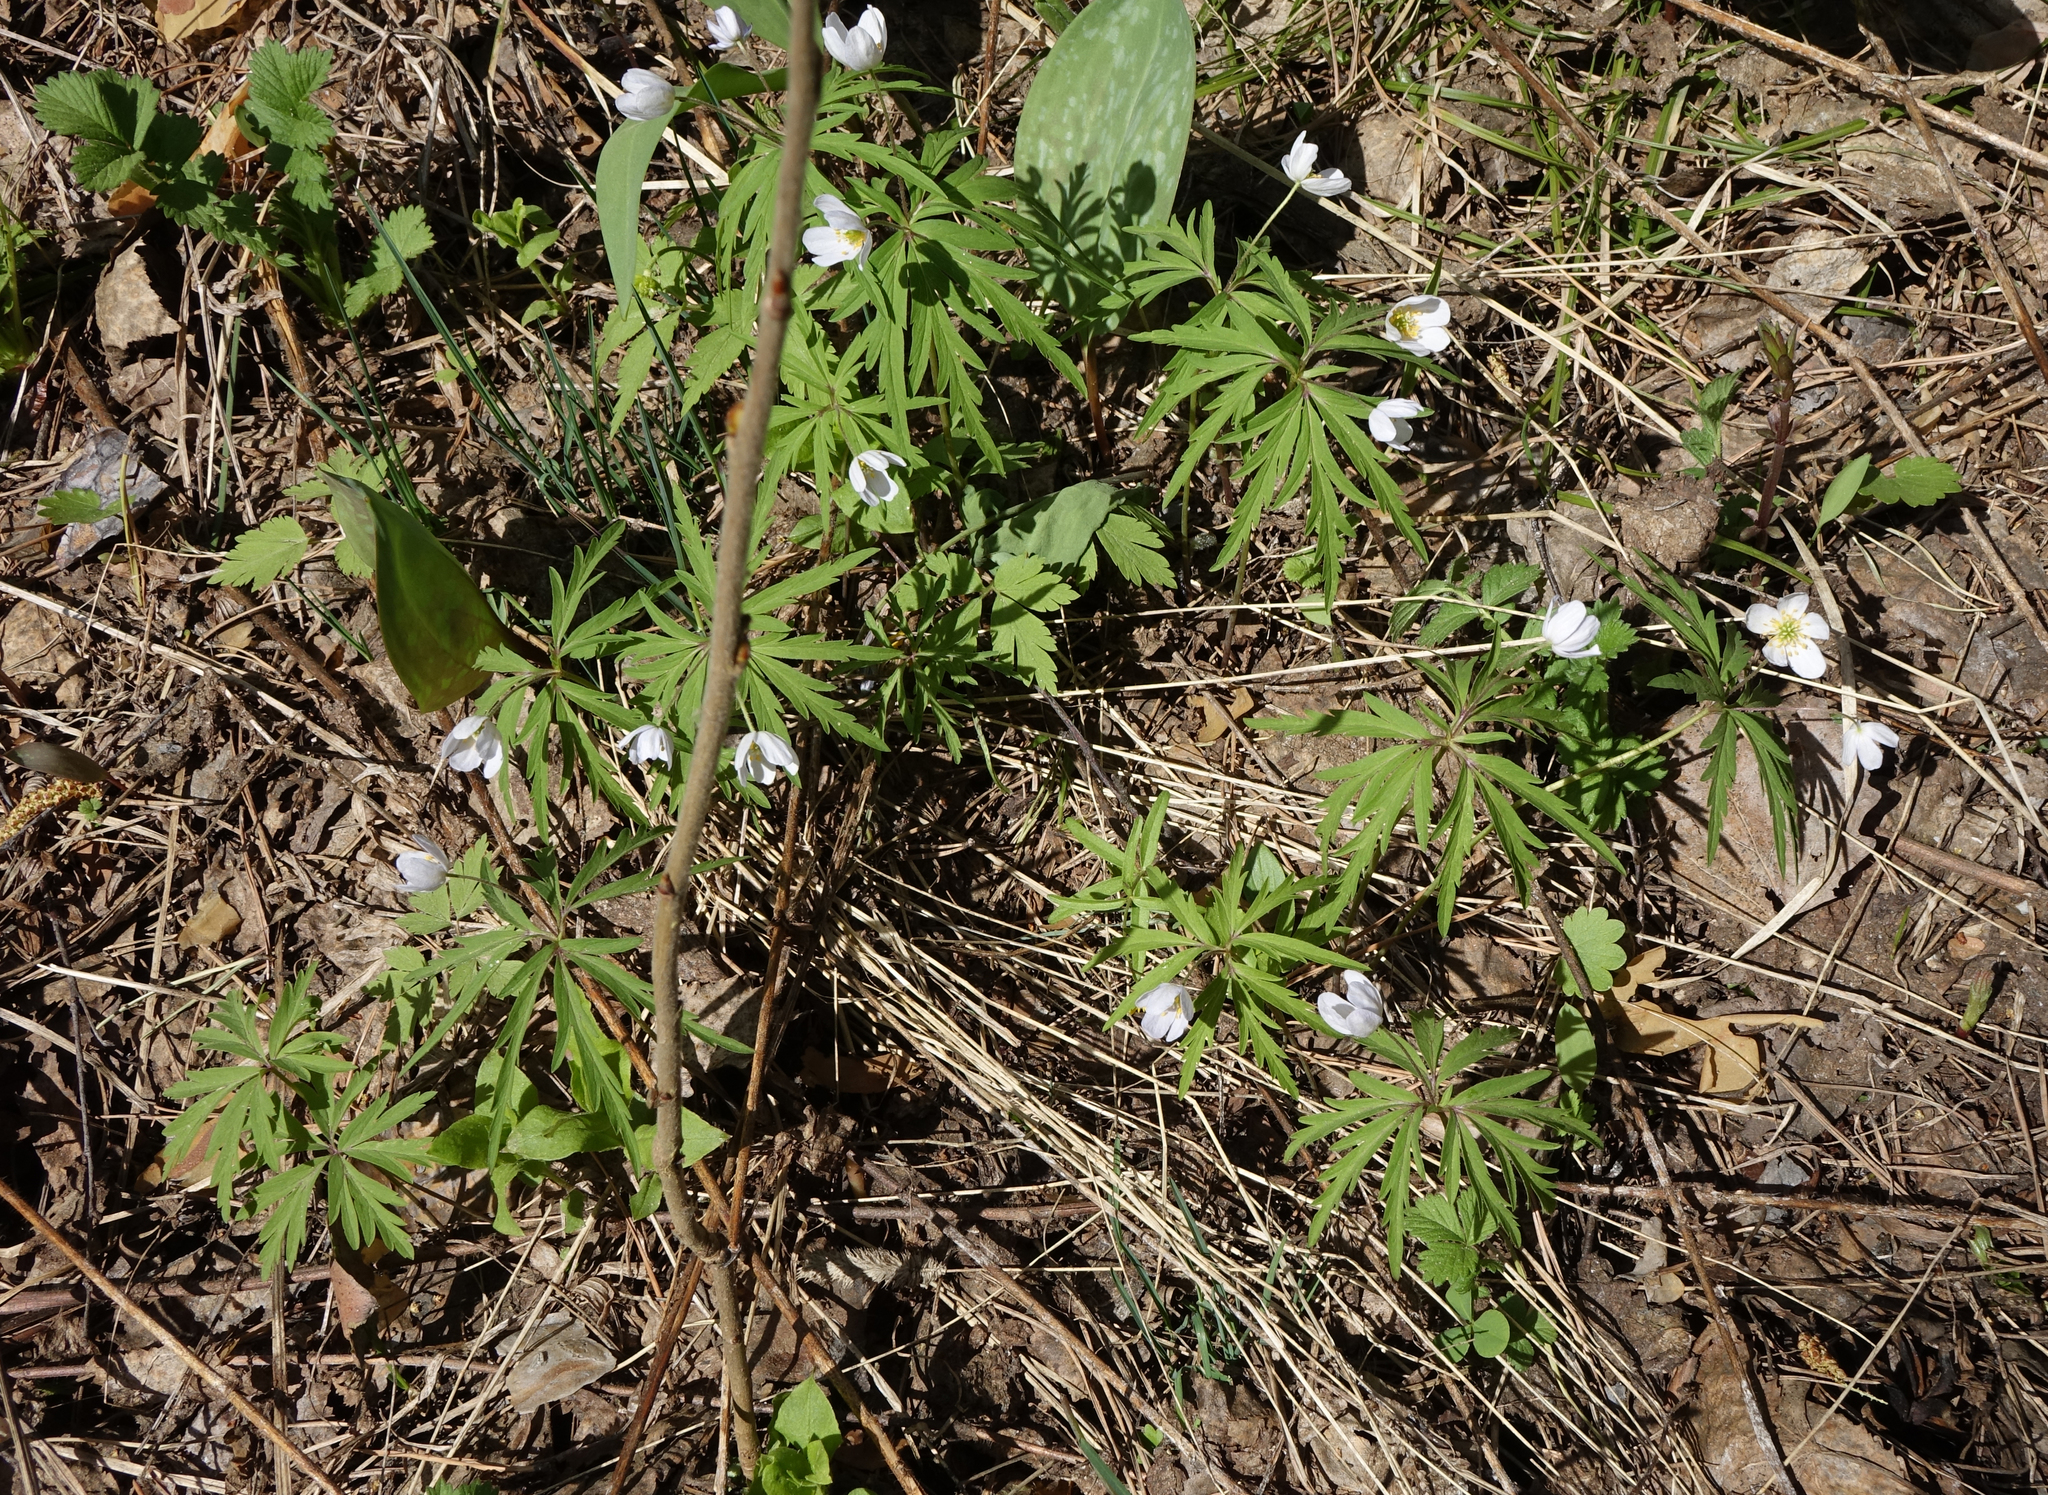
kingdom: Plantae
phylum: Tracheophyta
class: Magnoliopsida
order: Ranunculales
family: Ranunculaceae
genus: Anemone
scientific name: Anemone caerulea
